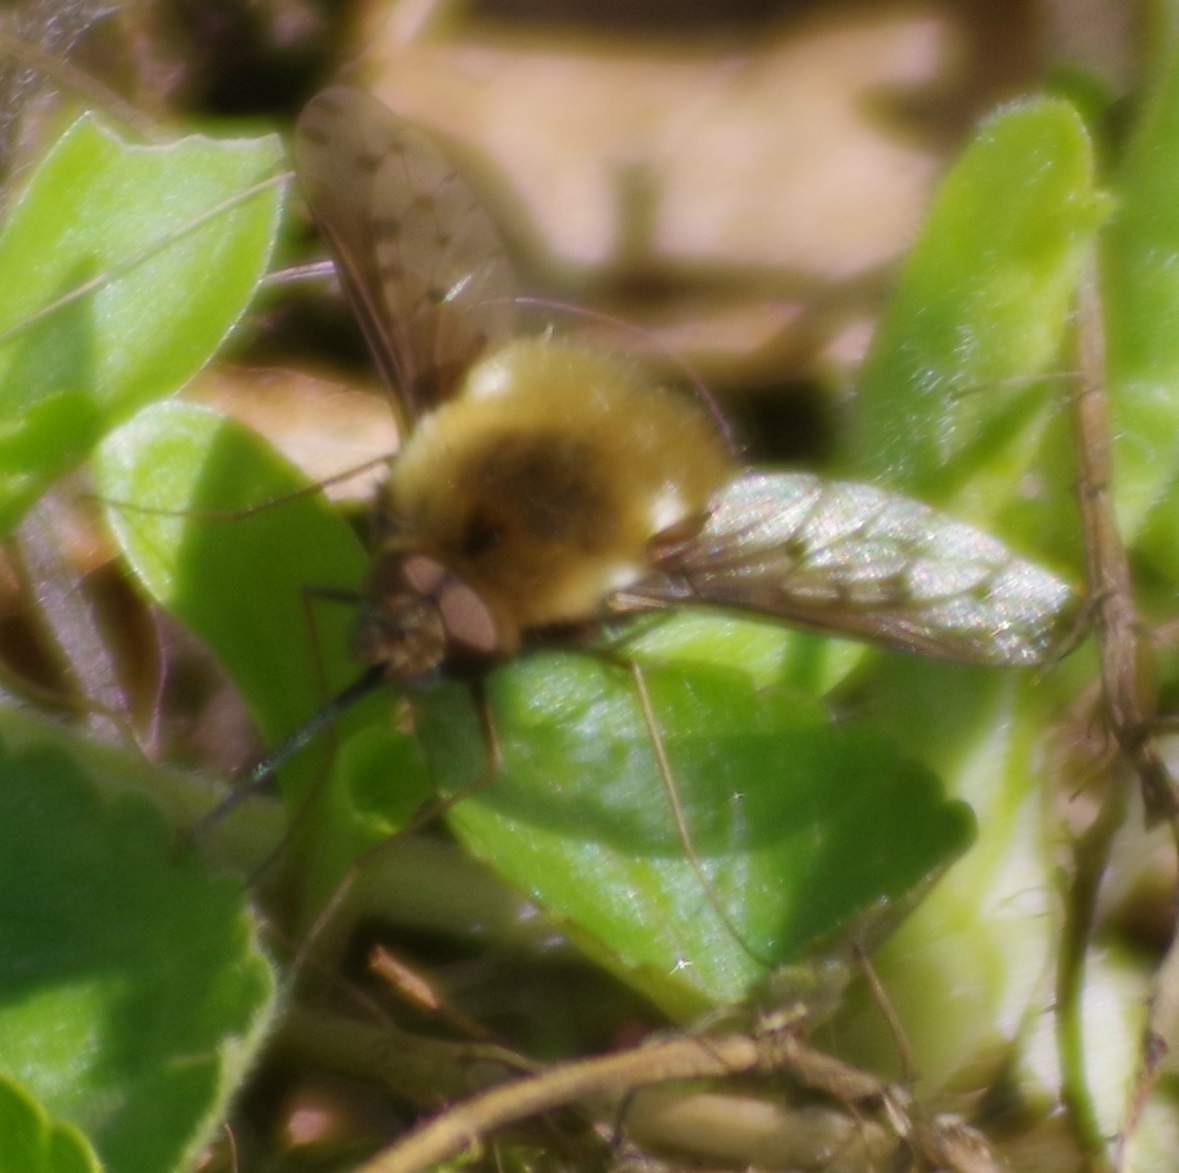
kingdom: Animalia
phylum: Arthropoda
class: Insecta
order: Diptera
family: Bombyliidae
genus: Bombylius
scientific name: Bombylius discolor
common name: Dotted bee-fly
